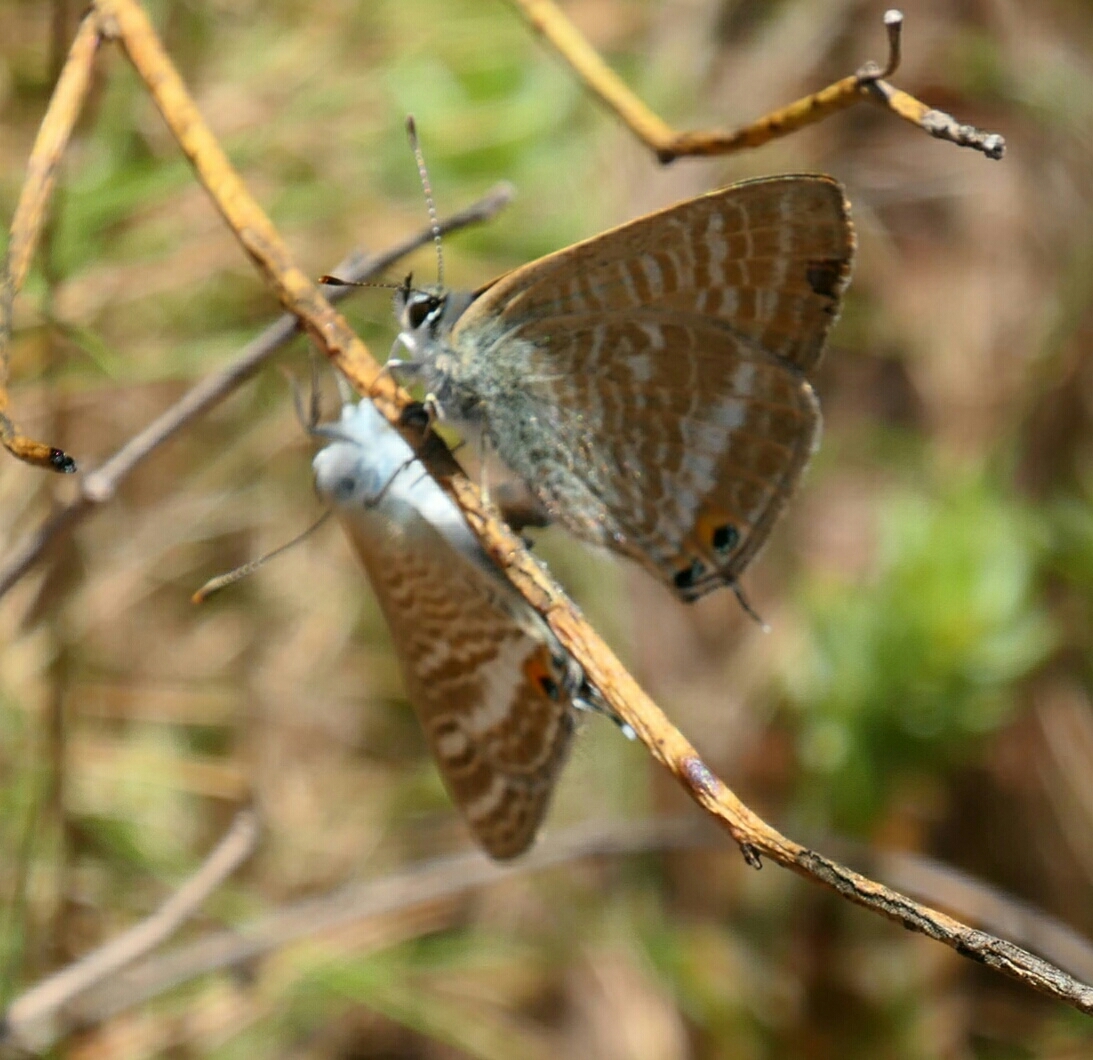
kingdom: Animalia
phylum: Arthropoda
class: Insecta
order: Lepidoptera
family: Lycaenidae
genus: Lampides
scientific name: Lampides boeticus
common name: Long-tailed blue
